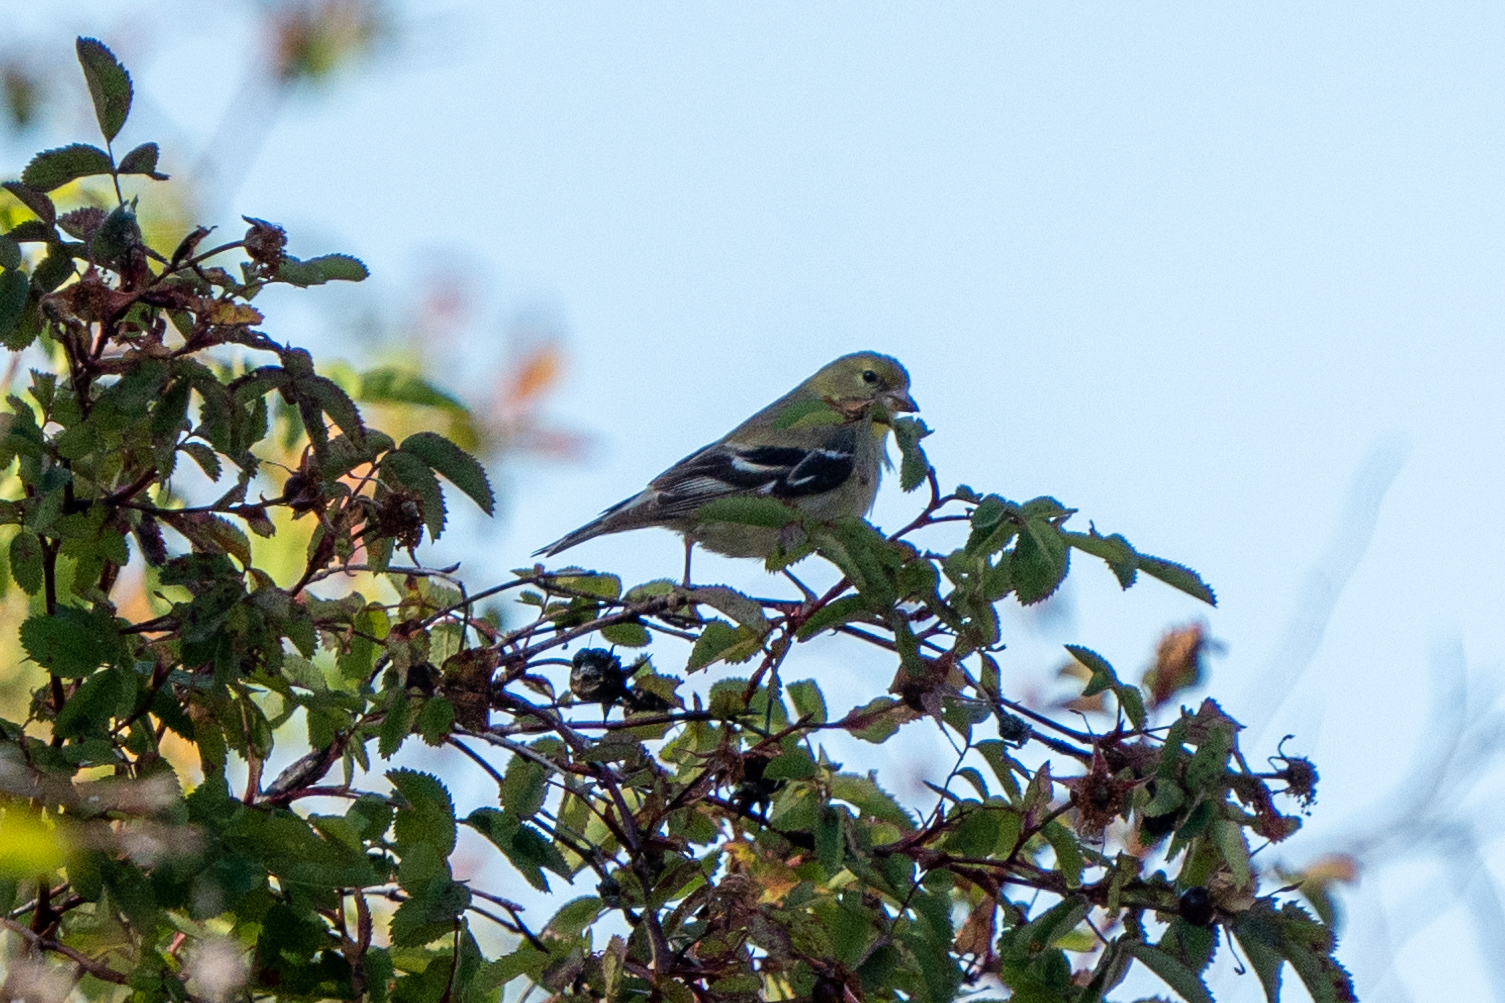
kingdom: Animalia
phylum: Chordata
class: Aves
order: Passeriformes
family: Fringillidae
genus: Spinus
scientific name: Spinus tristis
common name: American goldfinch
